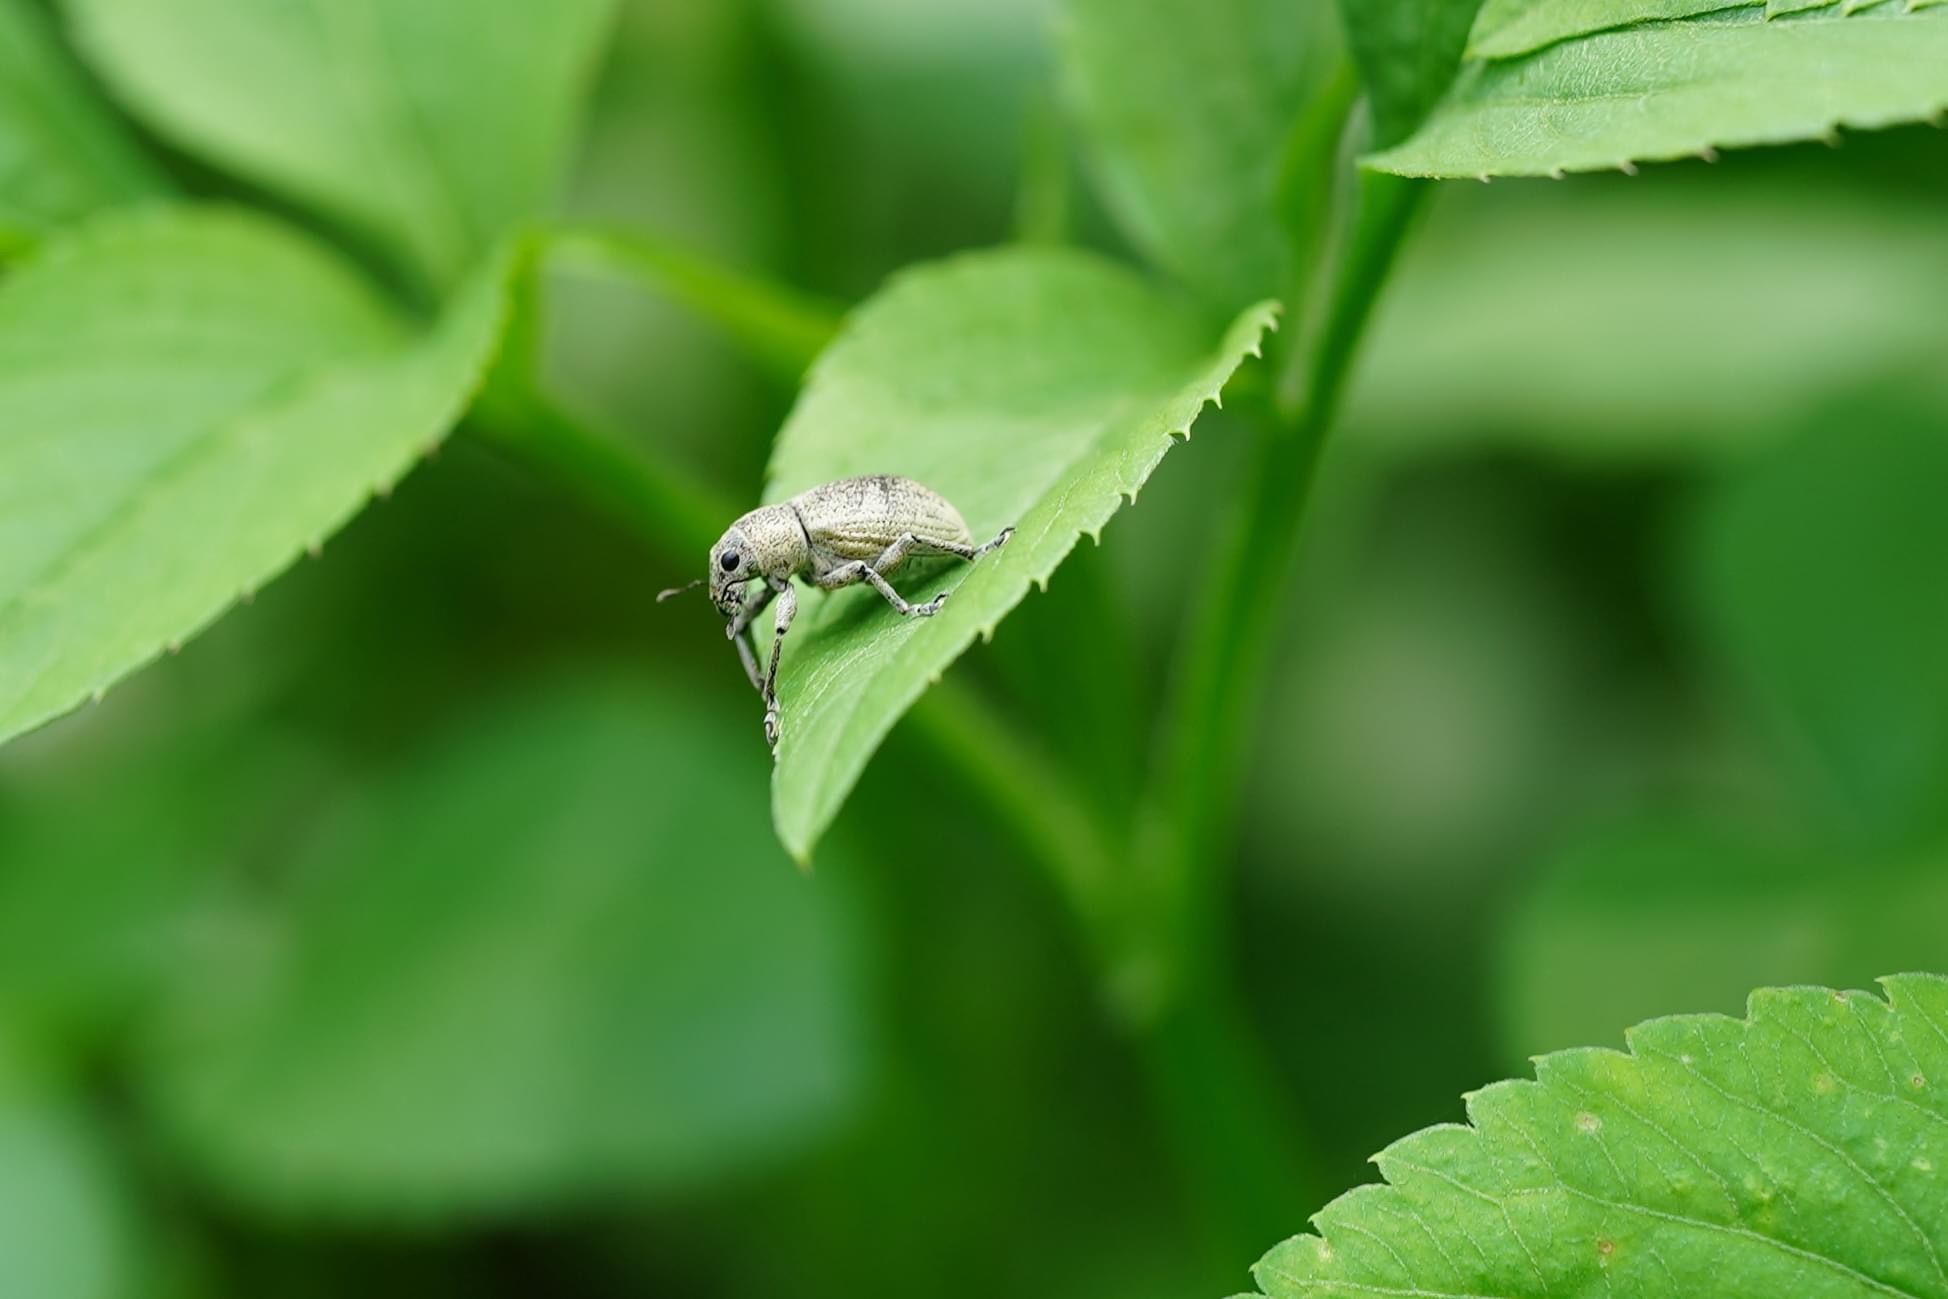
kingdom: Animalia
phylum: Arthropoda
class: Insecta
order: Coleoptera
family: Curculionidae
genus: Eugnathus
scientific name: Eugnathus distinctus
